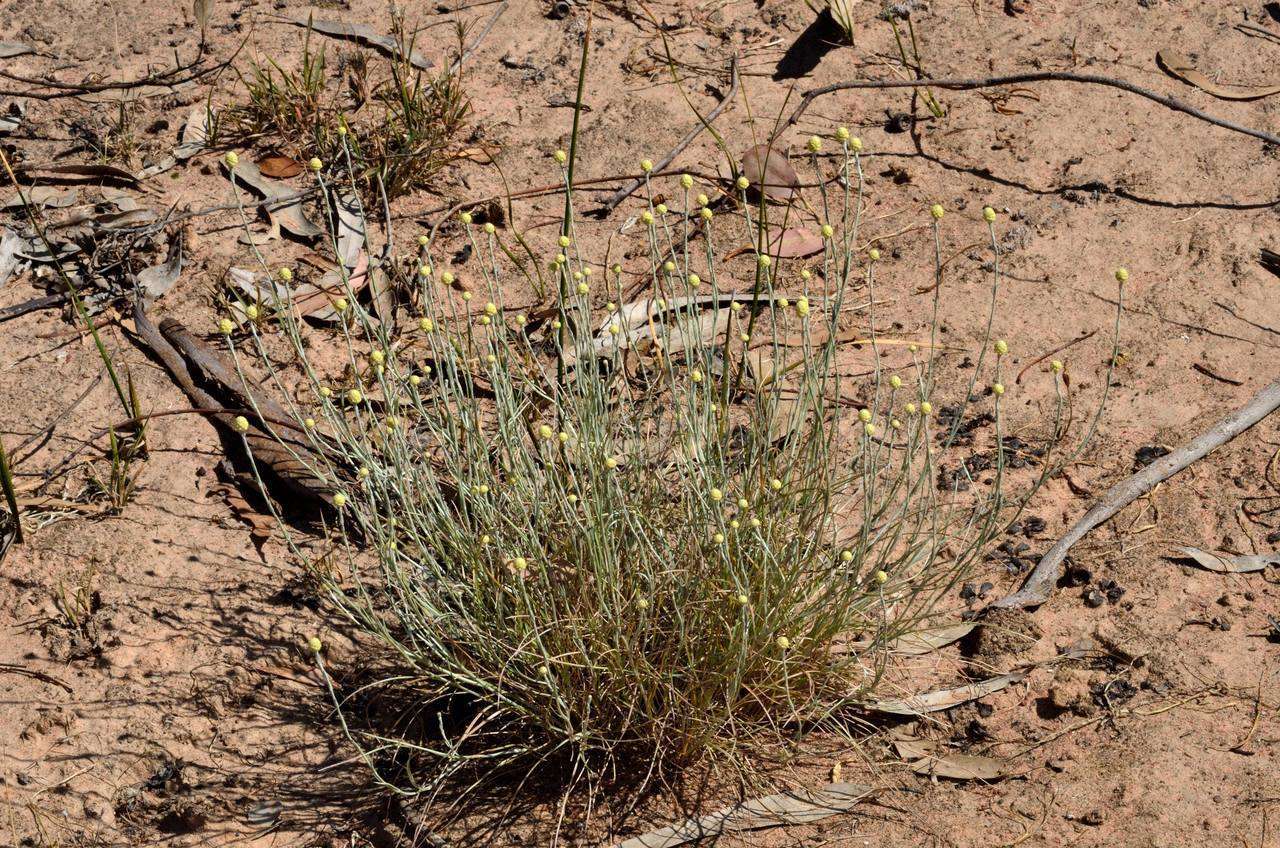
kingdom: Plantae
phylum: Tracheophyta
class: Magnoliopsida
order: Asterales
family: Asteraceae
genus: Calocephalus
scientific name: Calocephalus citreus
